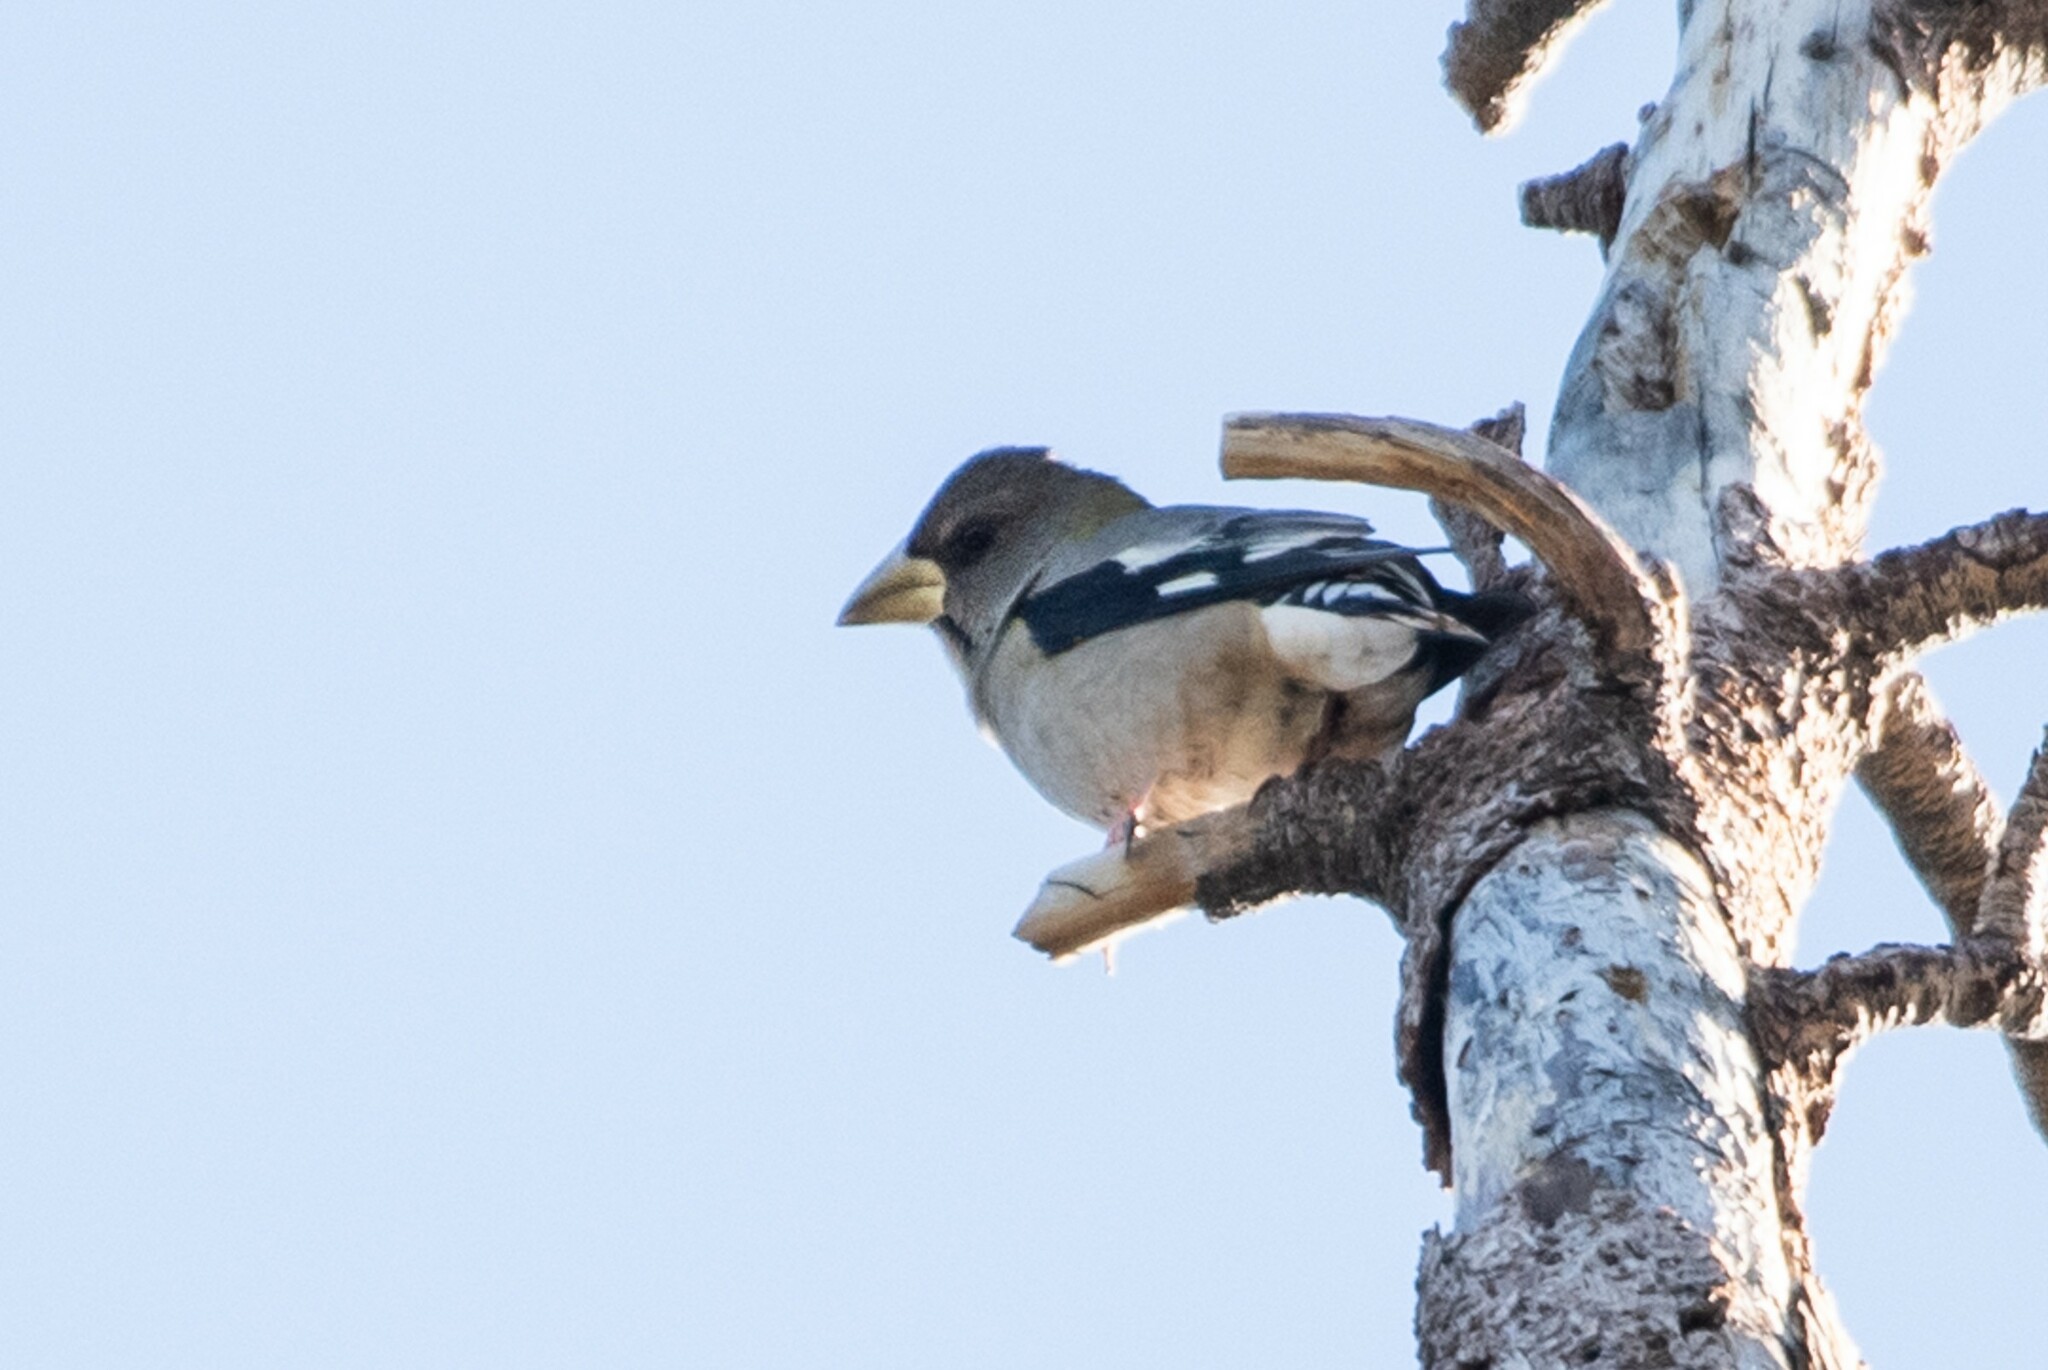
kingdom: Animalia
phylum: Chordata
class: Aves
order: Passeriformes
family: Fringillidae
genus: Hesperiphona
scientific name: Hesperiphona vespertina
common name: Evening grosbeak
